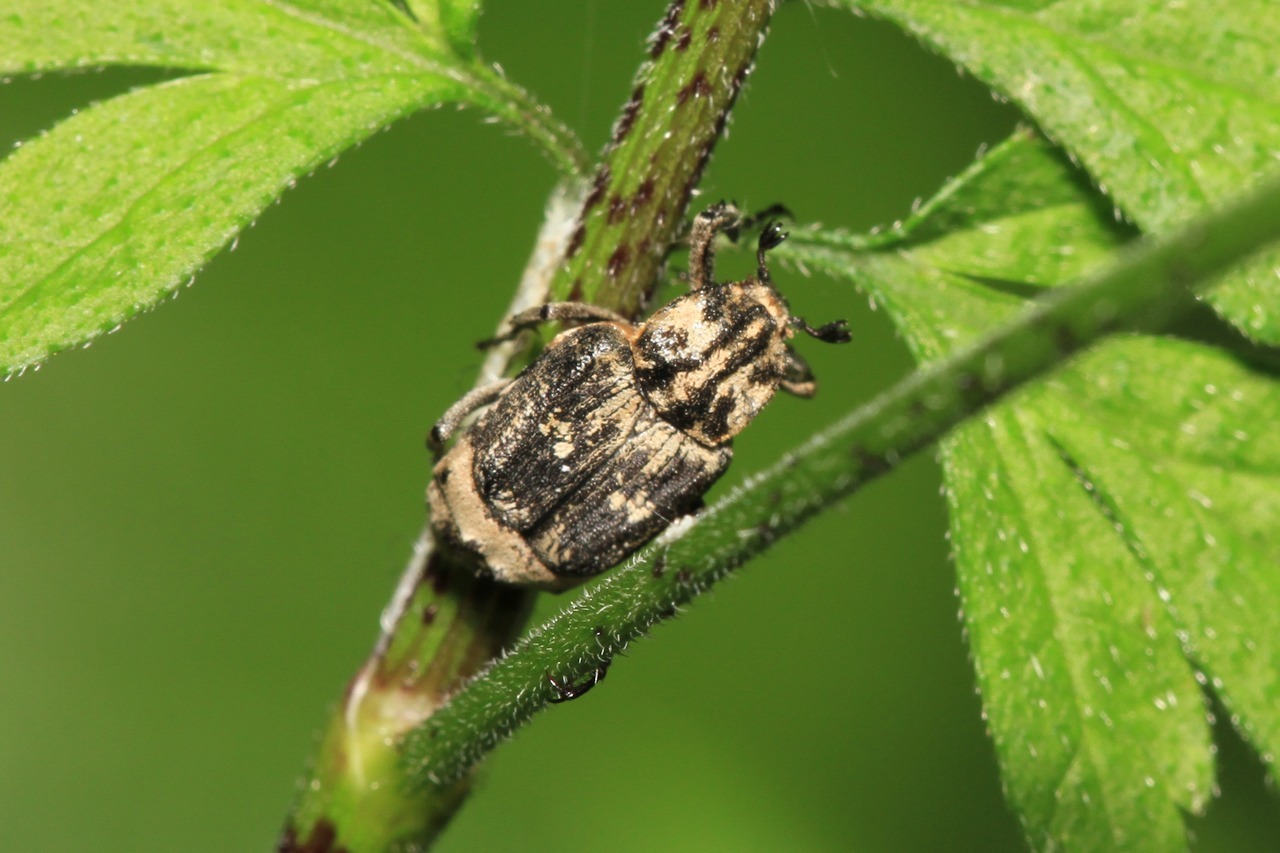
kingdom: Animalia
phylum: Arthropoda
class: Insecta
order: Coleoptera
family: Scarabaeidae
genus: Valgus
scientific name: Valgus hemipterus
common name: Bug flower chafer
